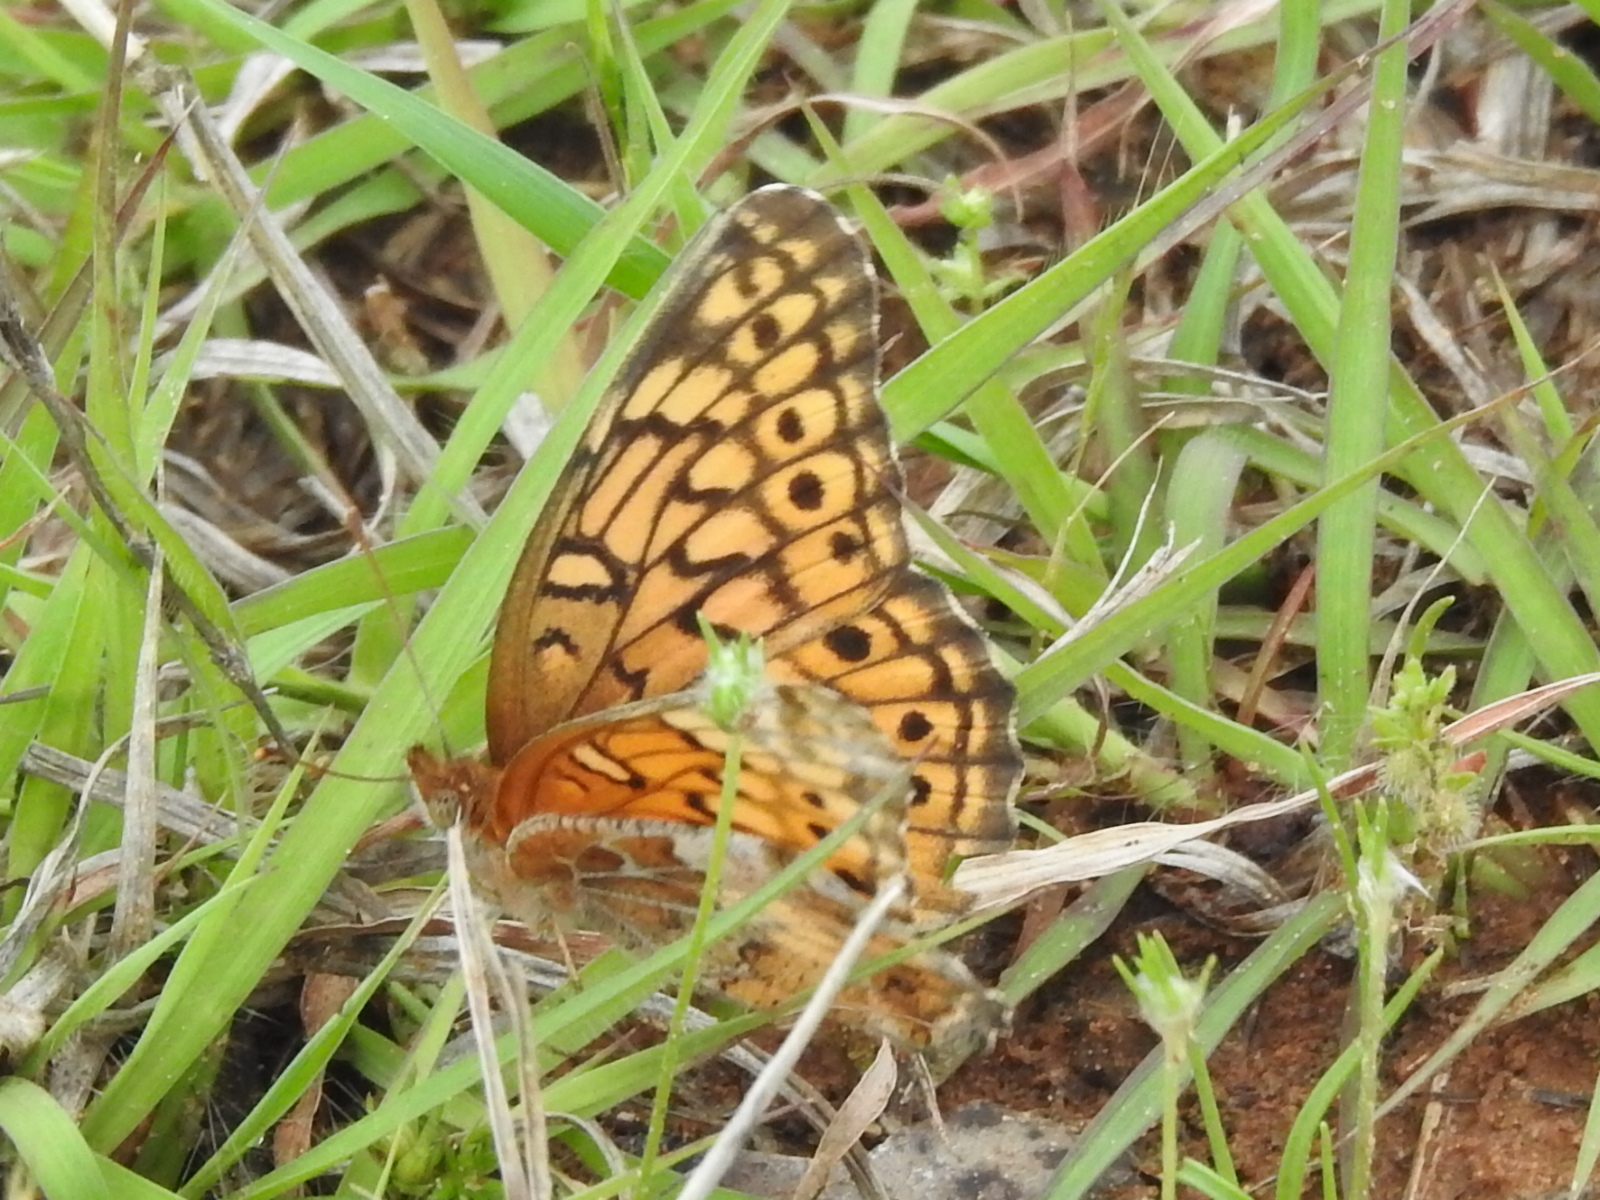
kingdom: Animalia
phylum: Arthropoda
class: Insecta
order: Lepidoptera
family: Nymphalidae
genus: Euptoieta
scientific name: Euptoieta claudia
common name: Variegated fritillary
